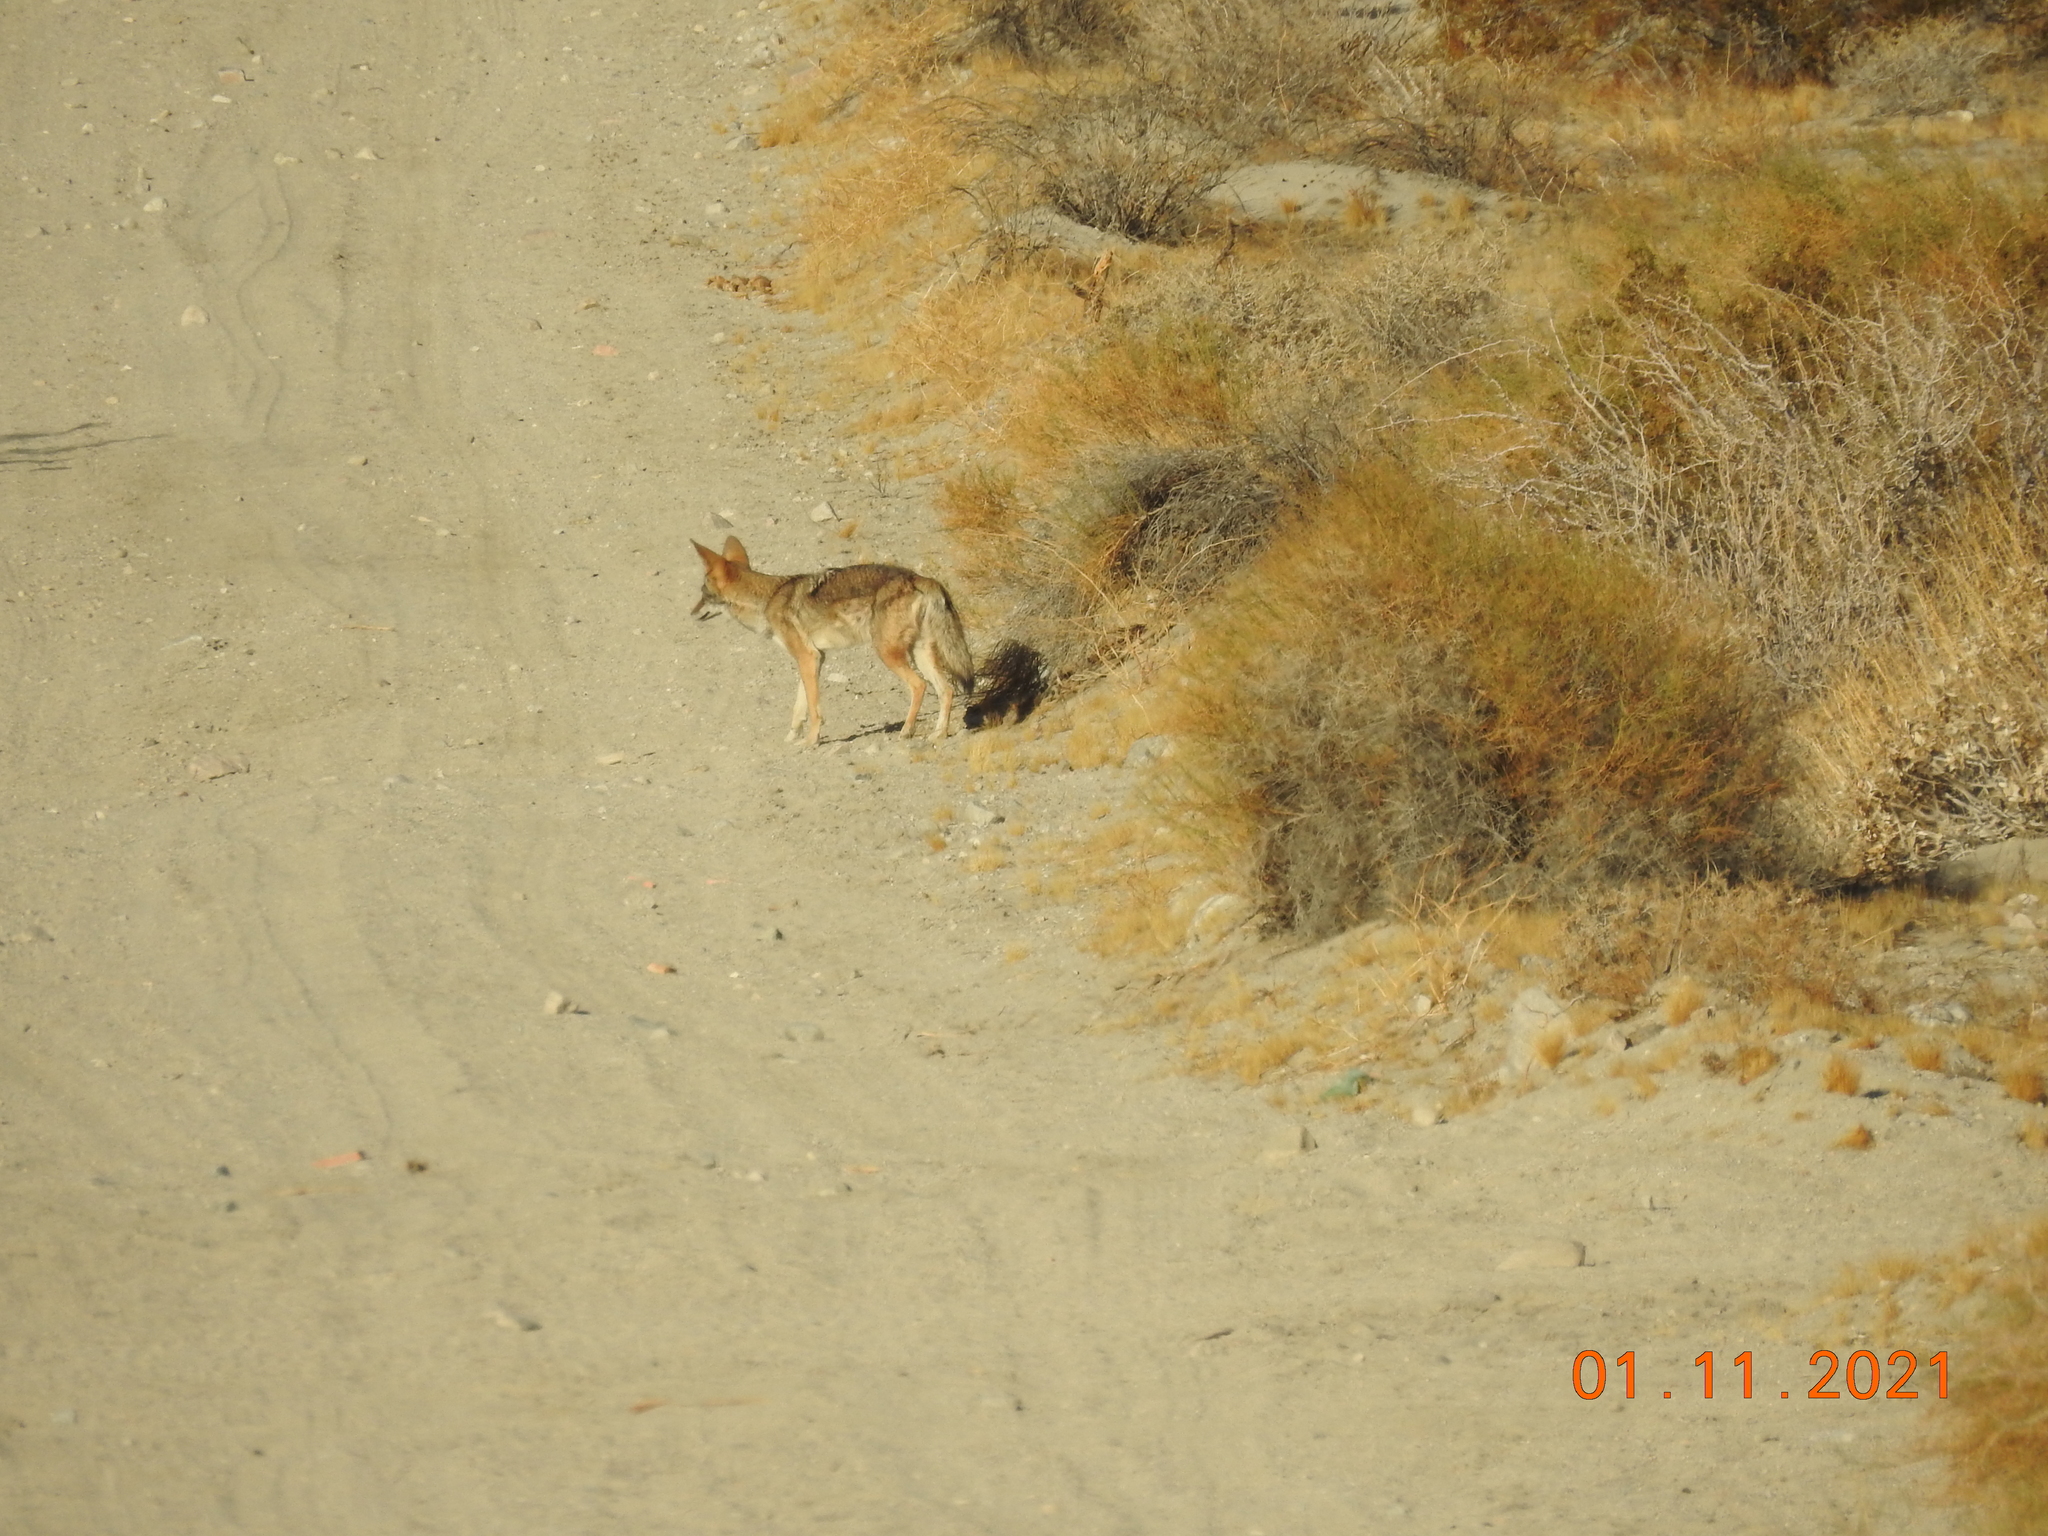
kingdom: Animalia
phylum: Chordata
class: Mammalia
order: Carnivora
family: Canidae
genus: Canis
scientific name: Canis latrans
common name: Coyote
